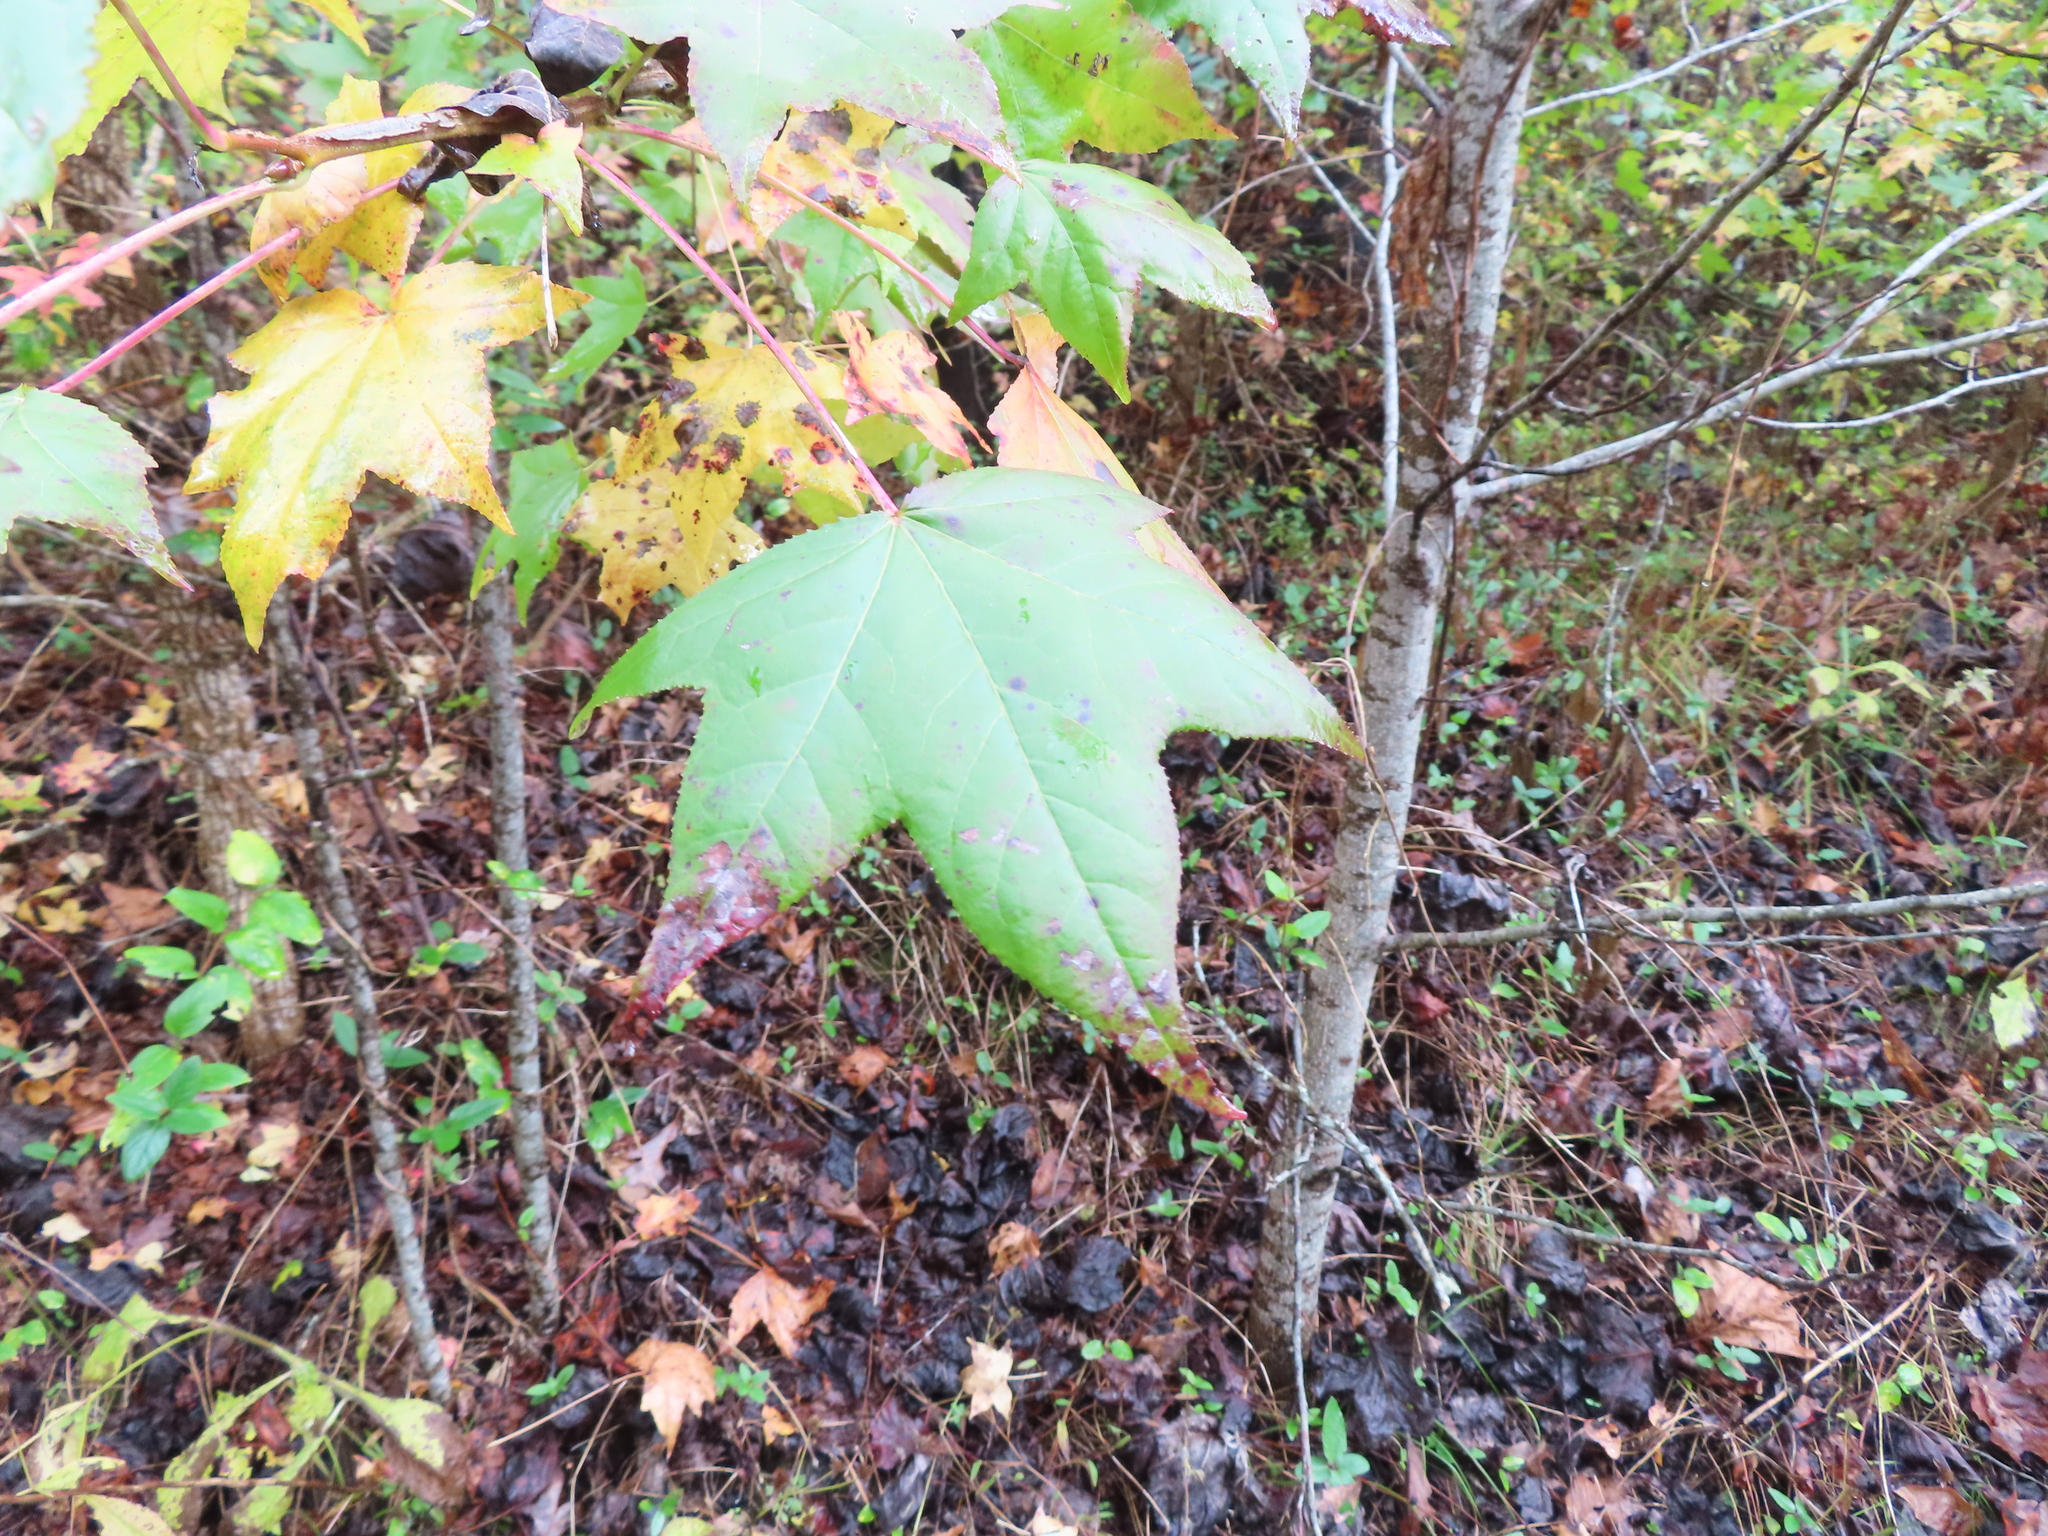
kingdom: Plantae
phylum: Tracheophyta
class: Magnoliopsida
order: Saxifragales
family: Altingiaceae
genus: Liquidambar
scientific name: Liquidambar styraciflua
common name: Sweet gum
